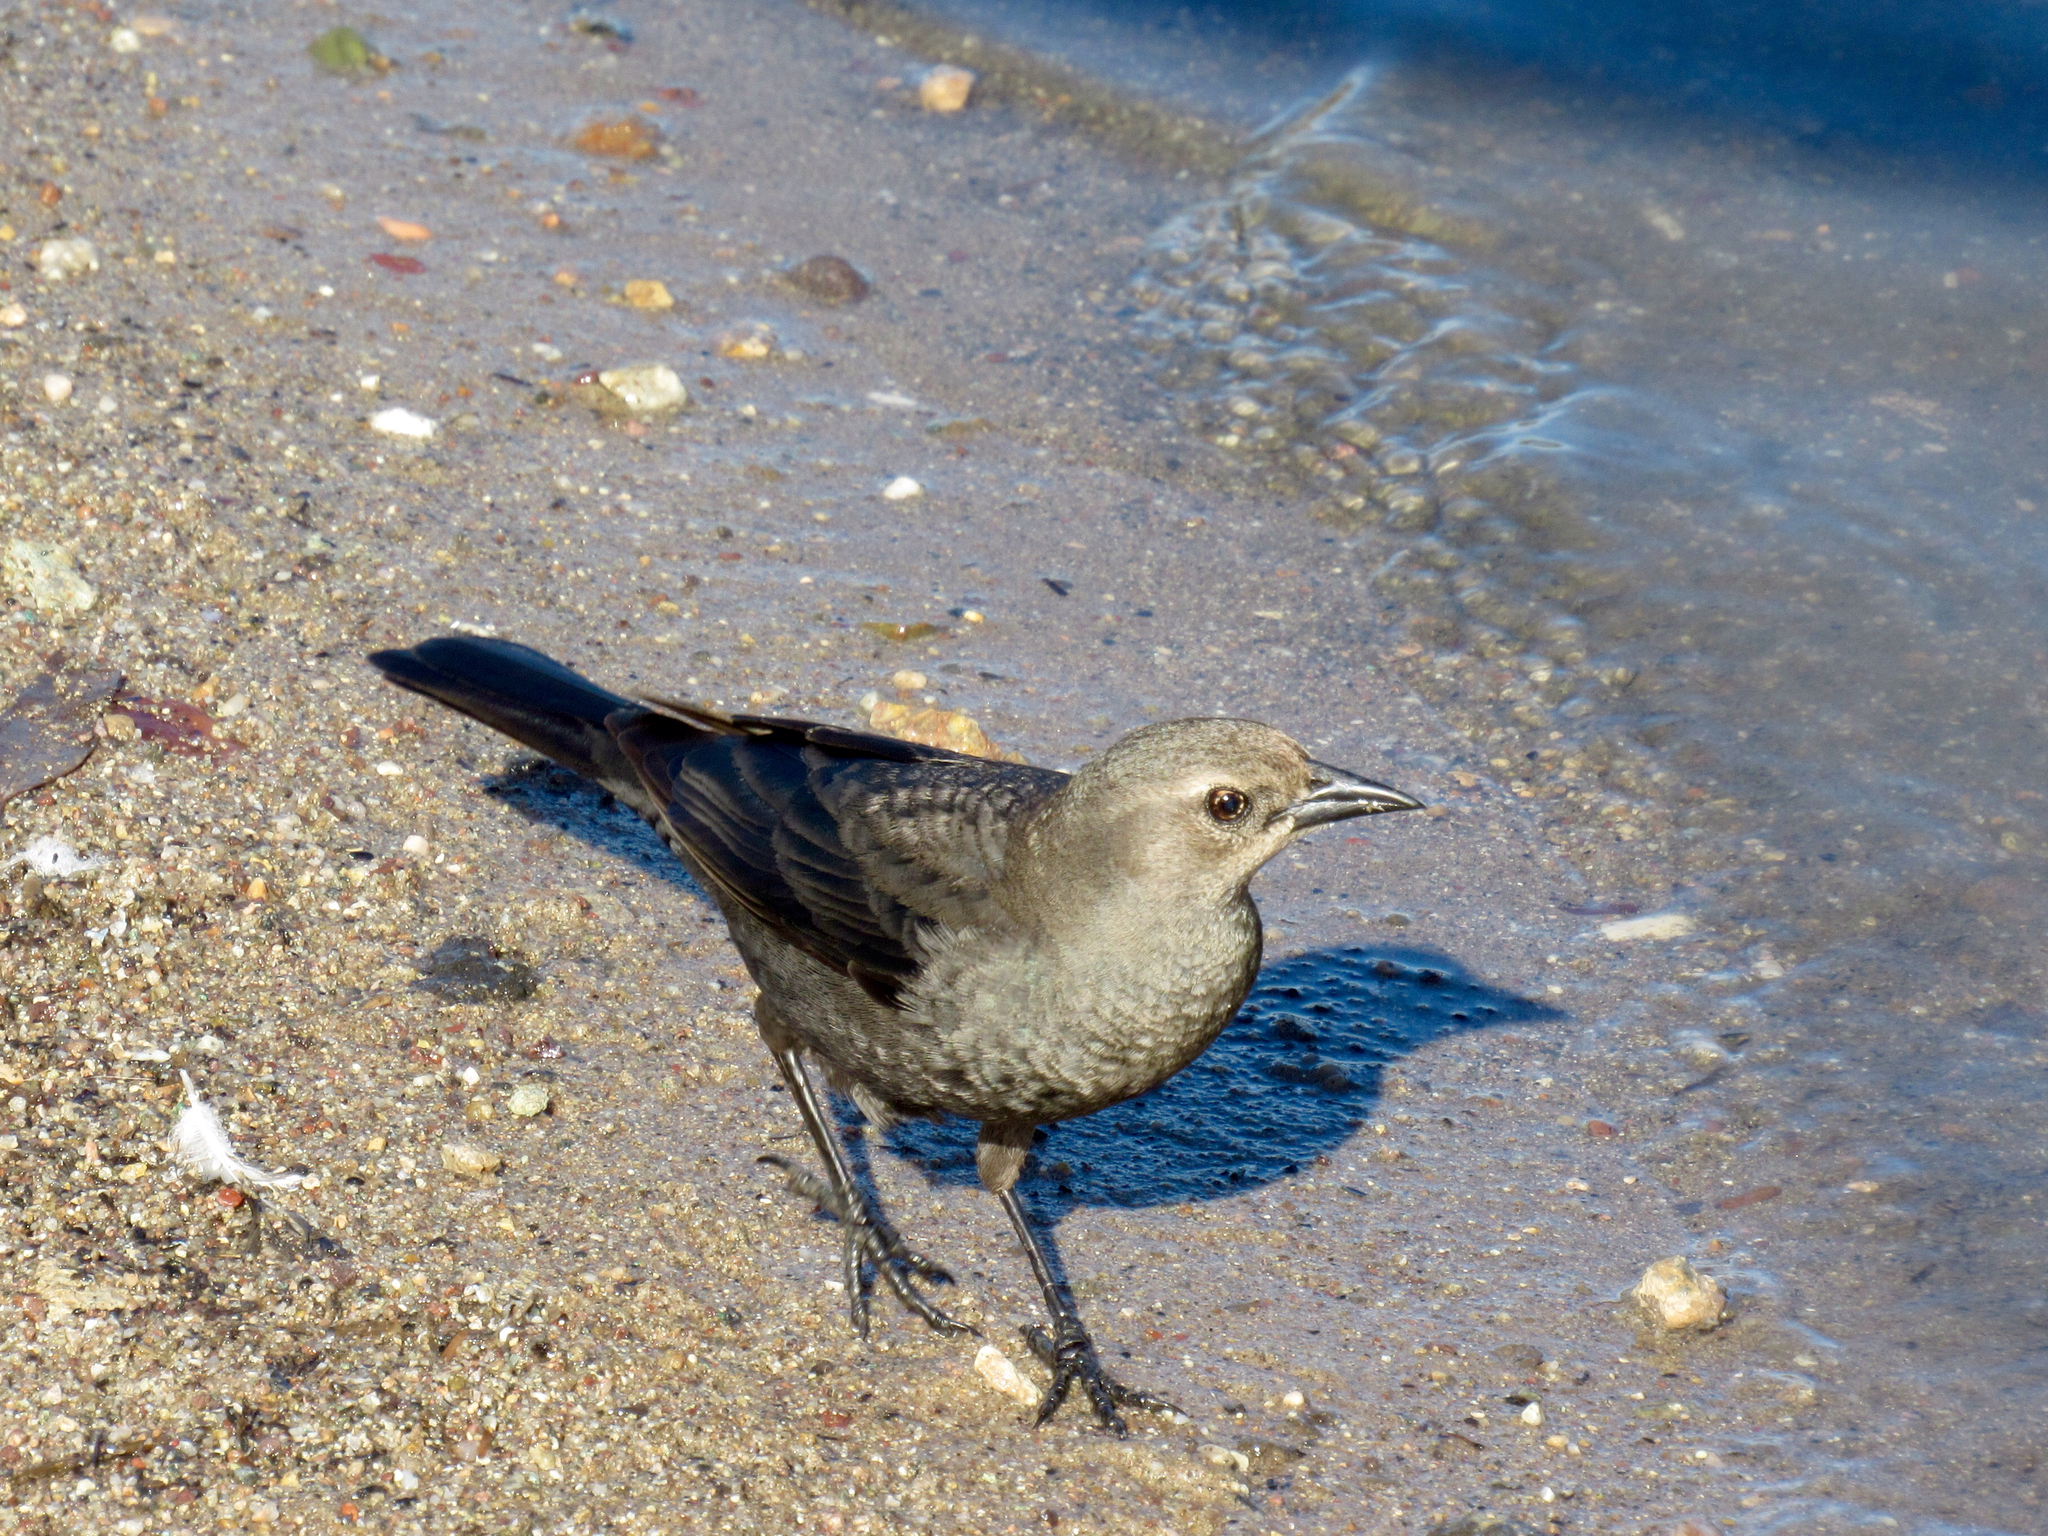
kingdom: Animalia
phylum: Chordata
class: Aves
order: Passeriformes
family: Icteridae
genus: Euphagus
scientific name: Euphagus cyanocephalus
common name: Brewer's blackbird
